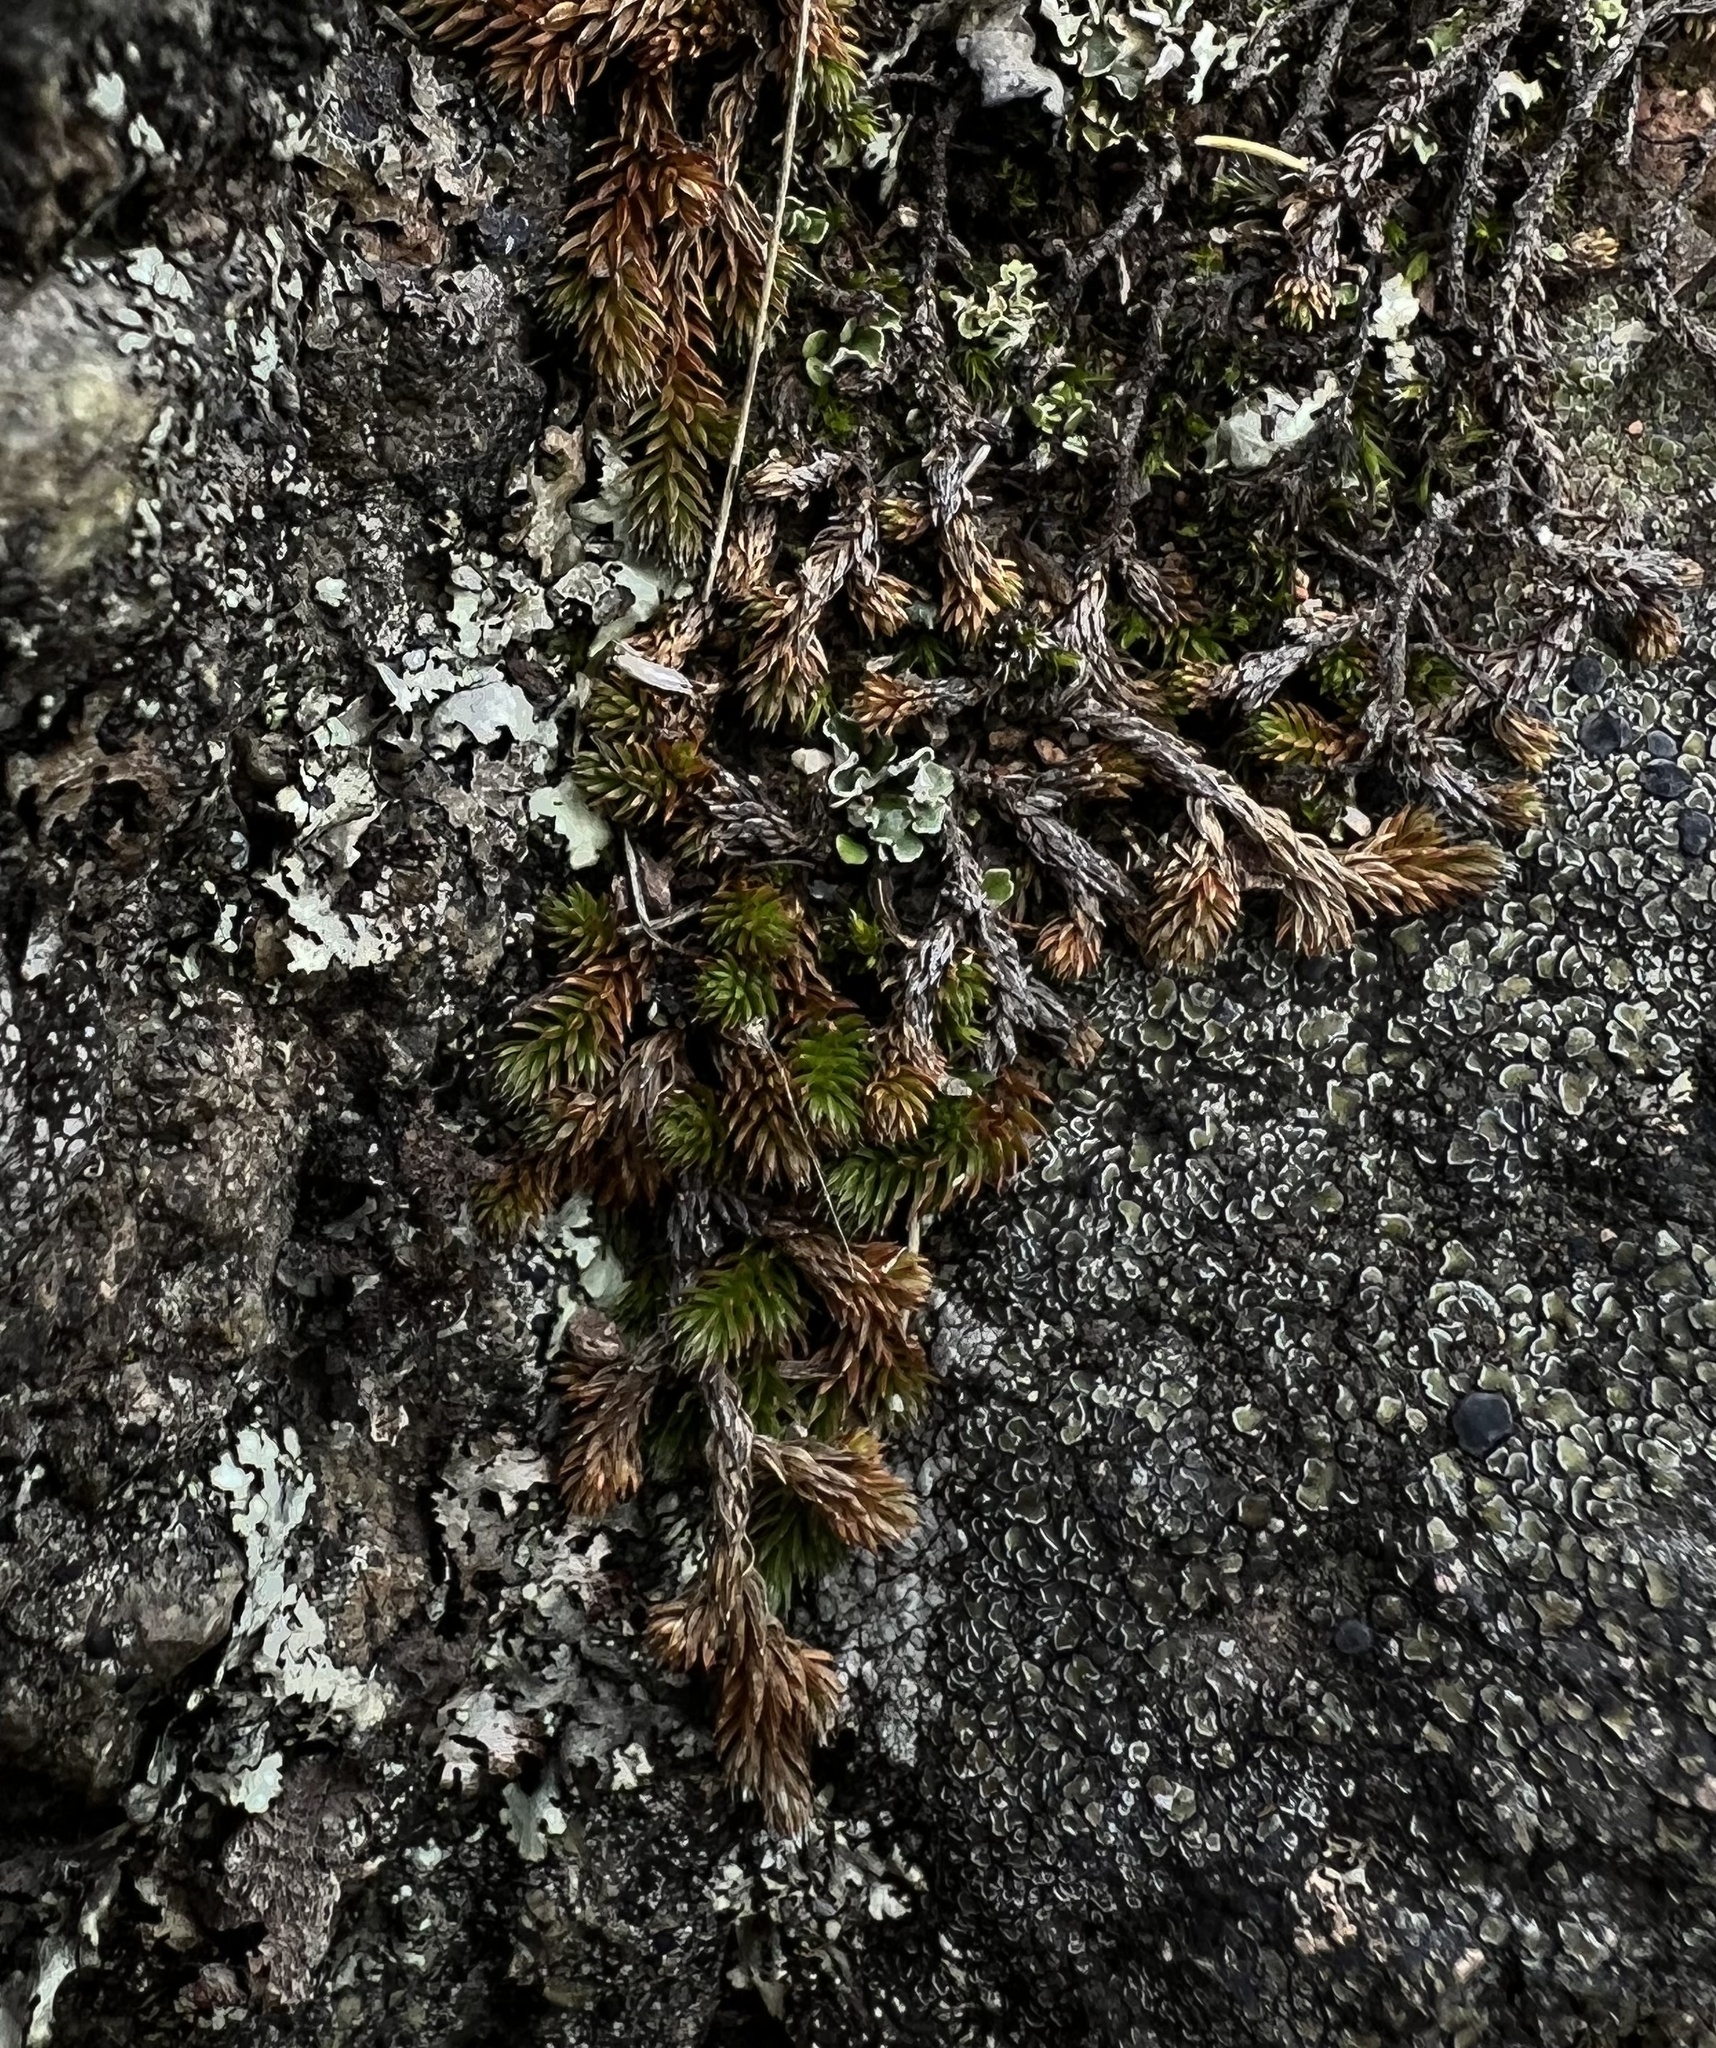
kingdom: Plantae
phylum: Tracheophyta
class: Lycopodiopsida
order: Selaginellales
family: Selaginellaceae
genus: Selaginella
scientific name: Selaginella wallacei
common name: Wallace's selaginella
